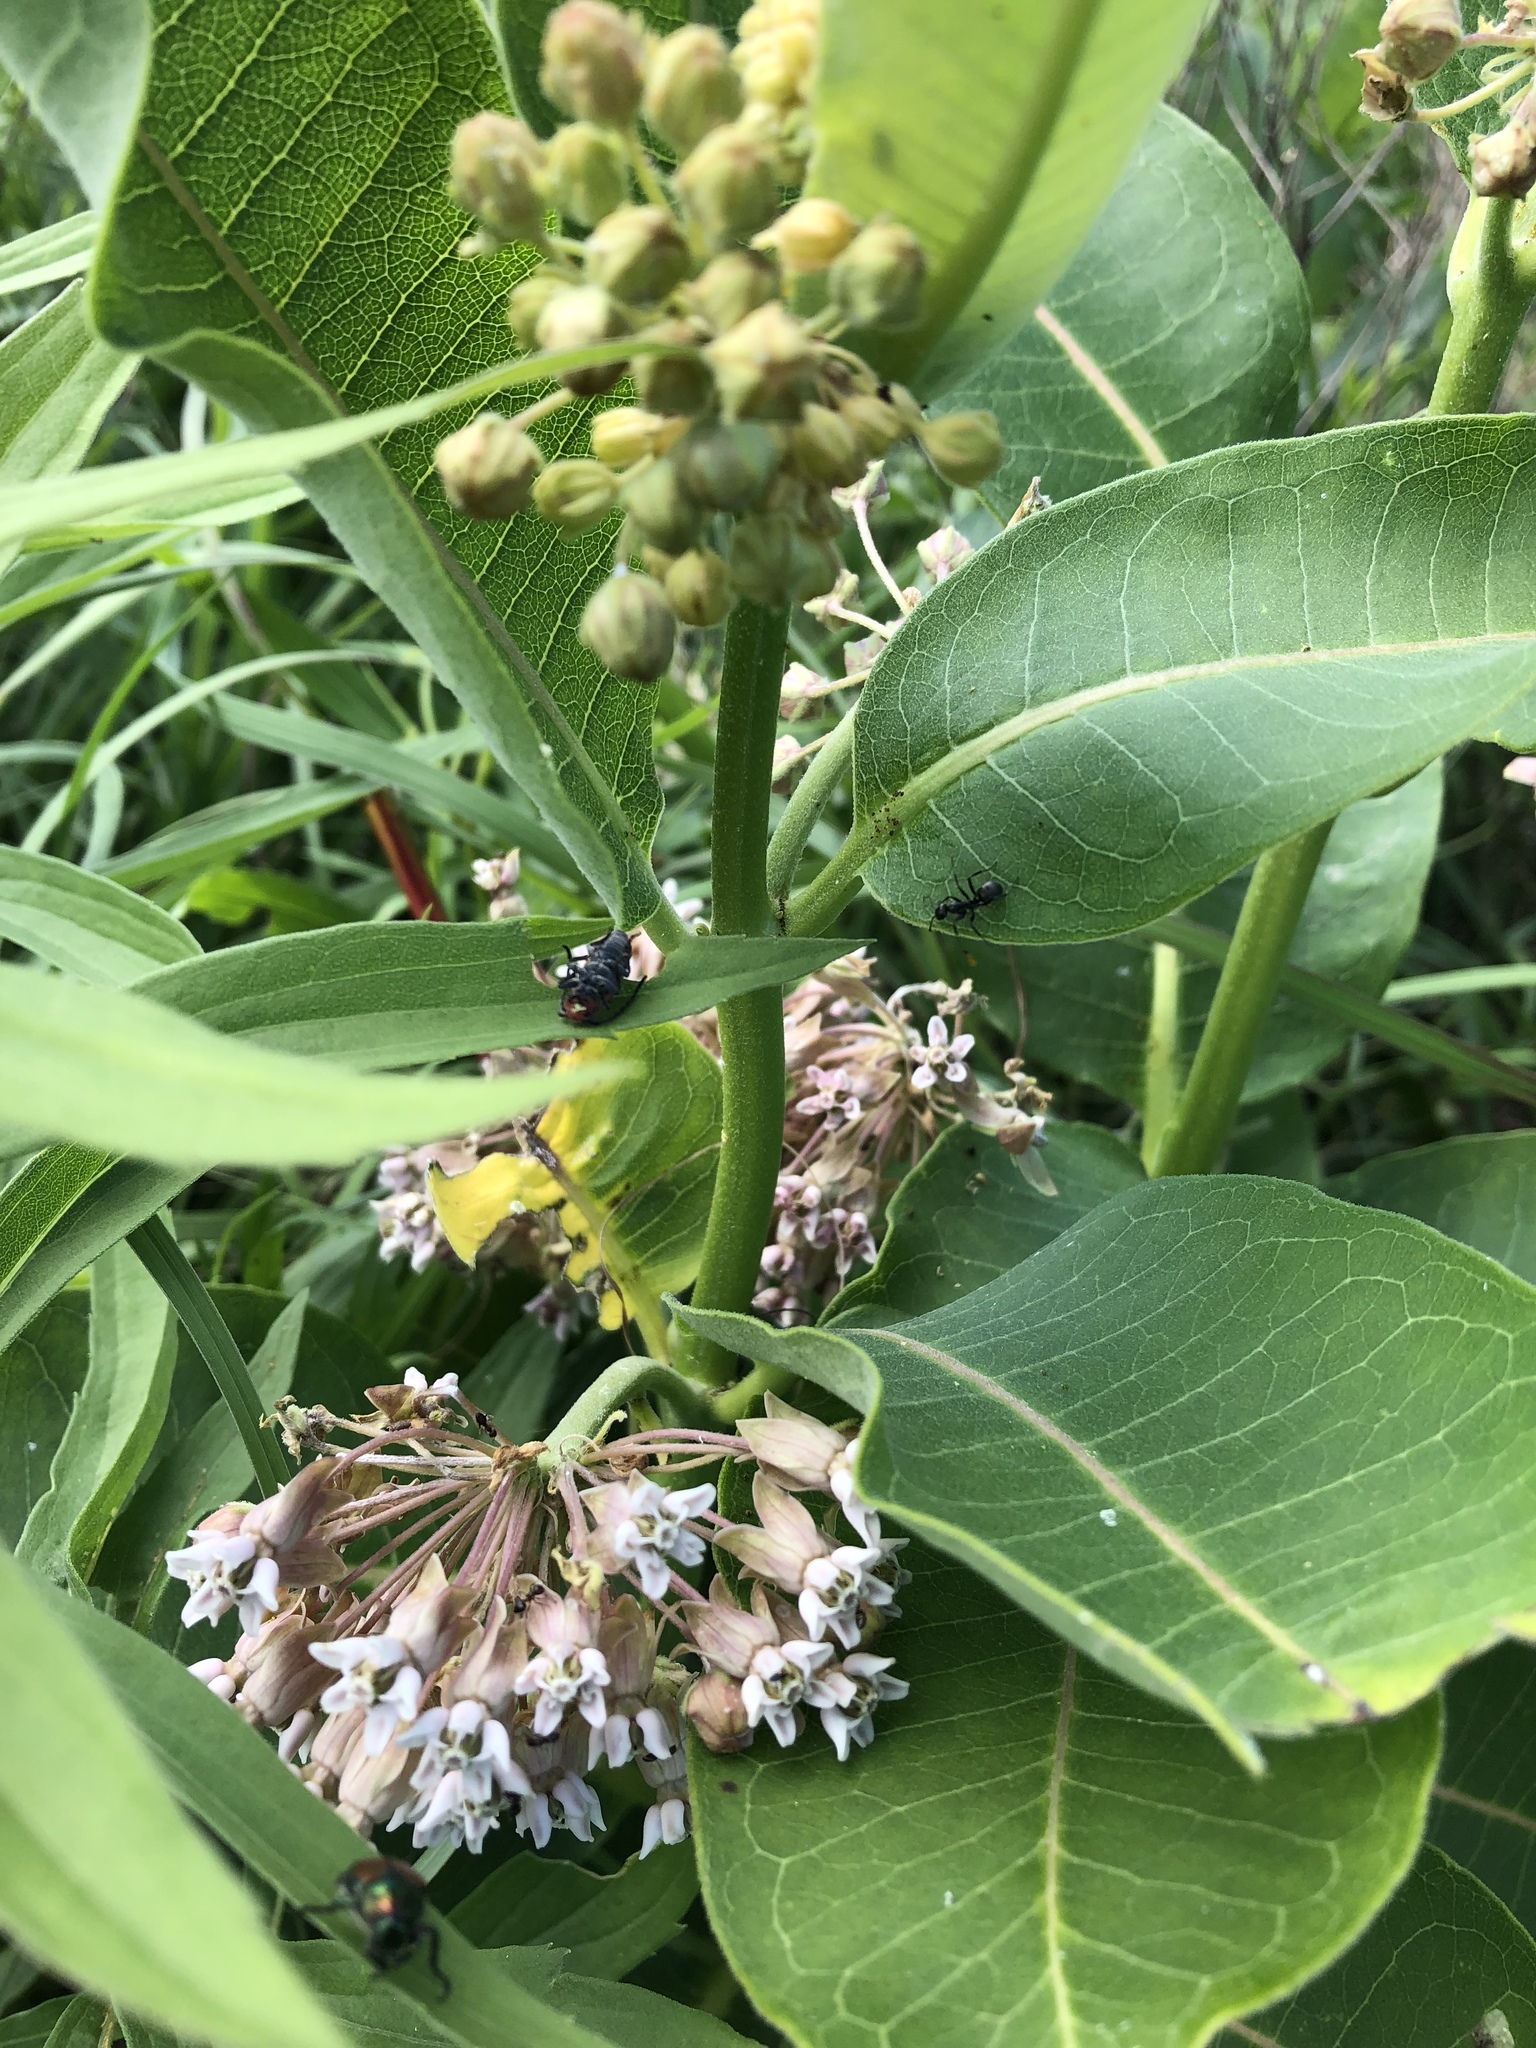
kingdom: Plantae
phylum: Tracheophyta
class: Magnoliopsida
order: Gentianales
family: Apocynaceae
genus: Asclepias
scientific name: Asclepias syriaca
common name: Common milkweed
